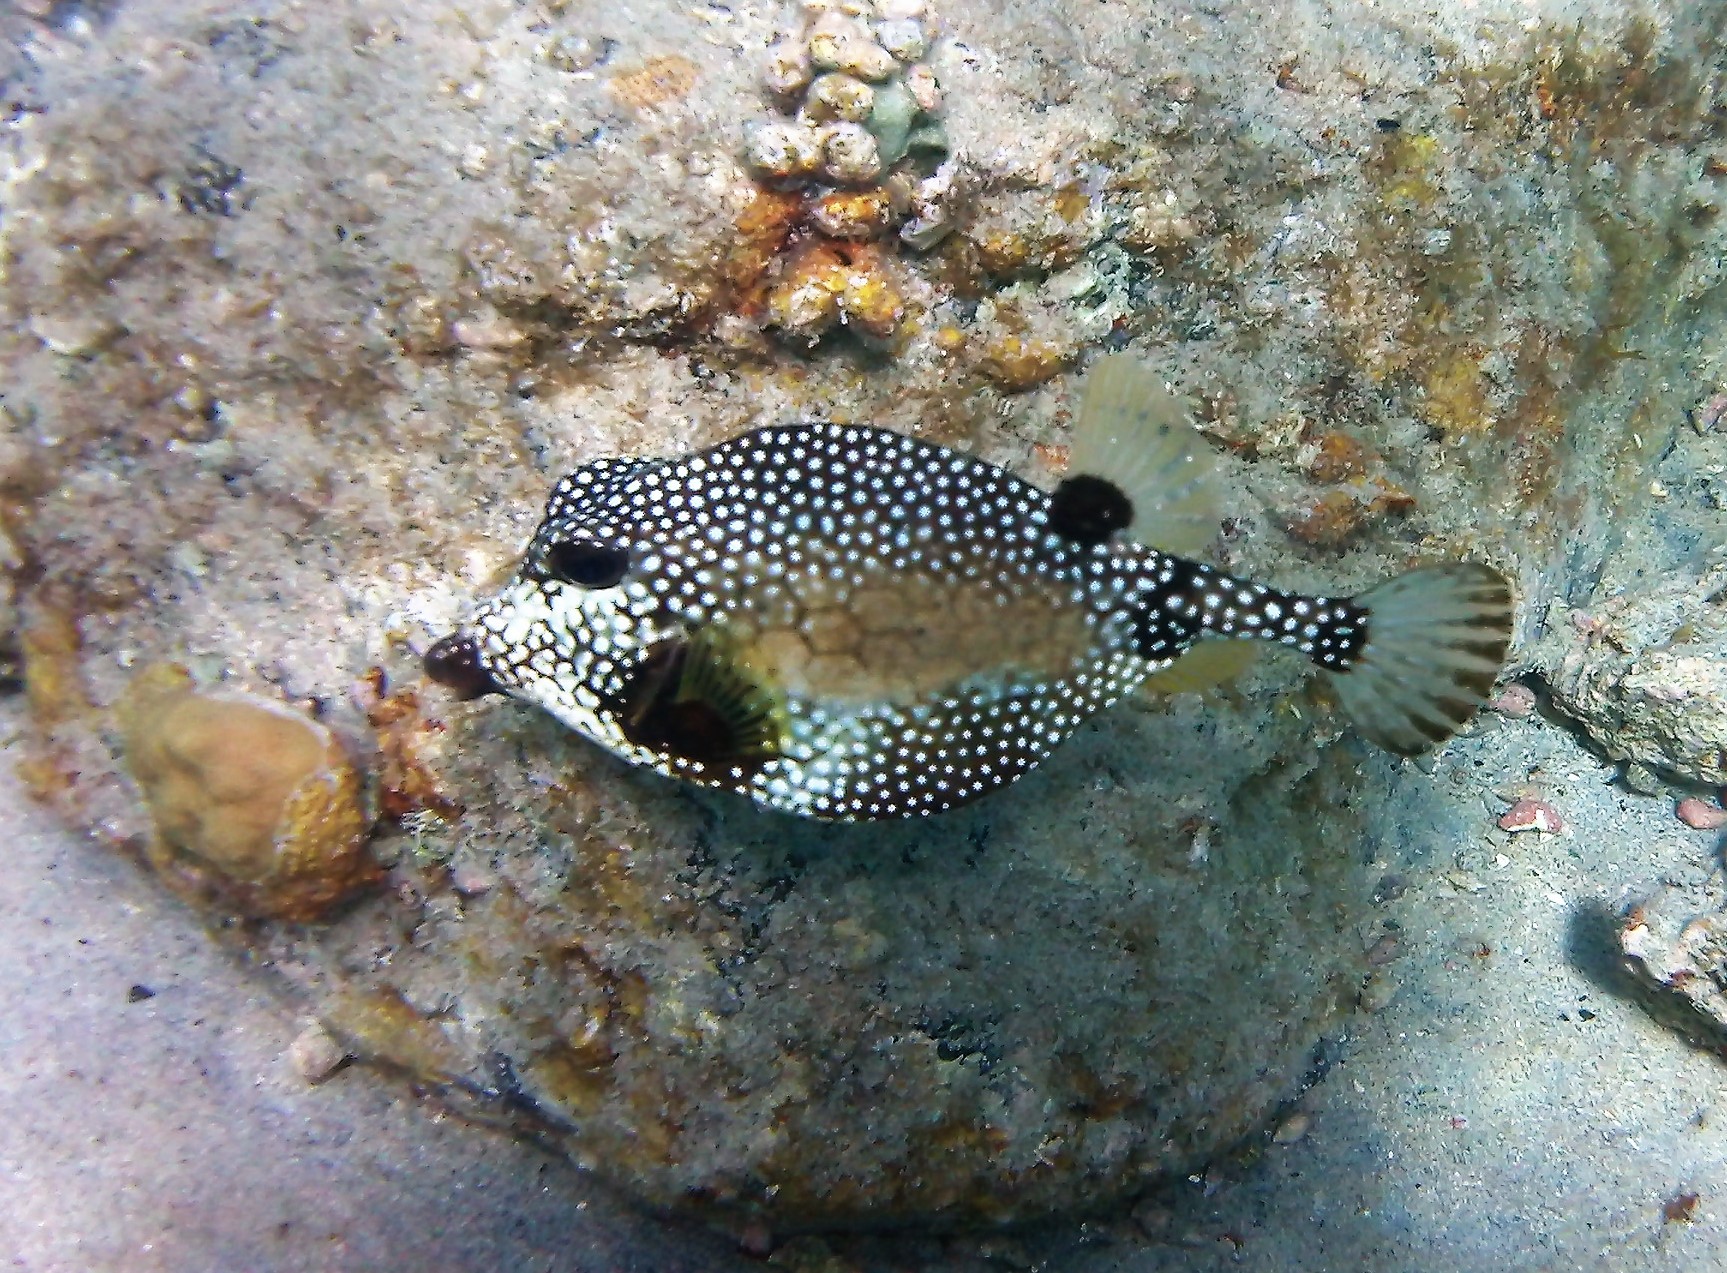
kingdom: Animalia
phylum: Chordata
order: Tetraodontiformes
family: Ostraciidae
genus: Lactophrys
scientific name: Lactophrys triqueter
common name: Smooth trunkfish
